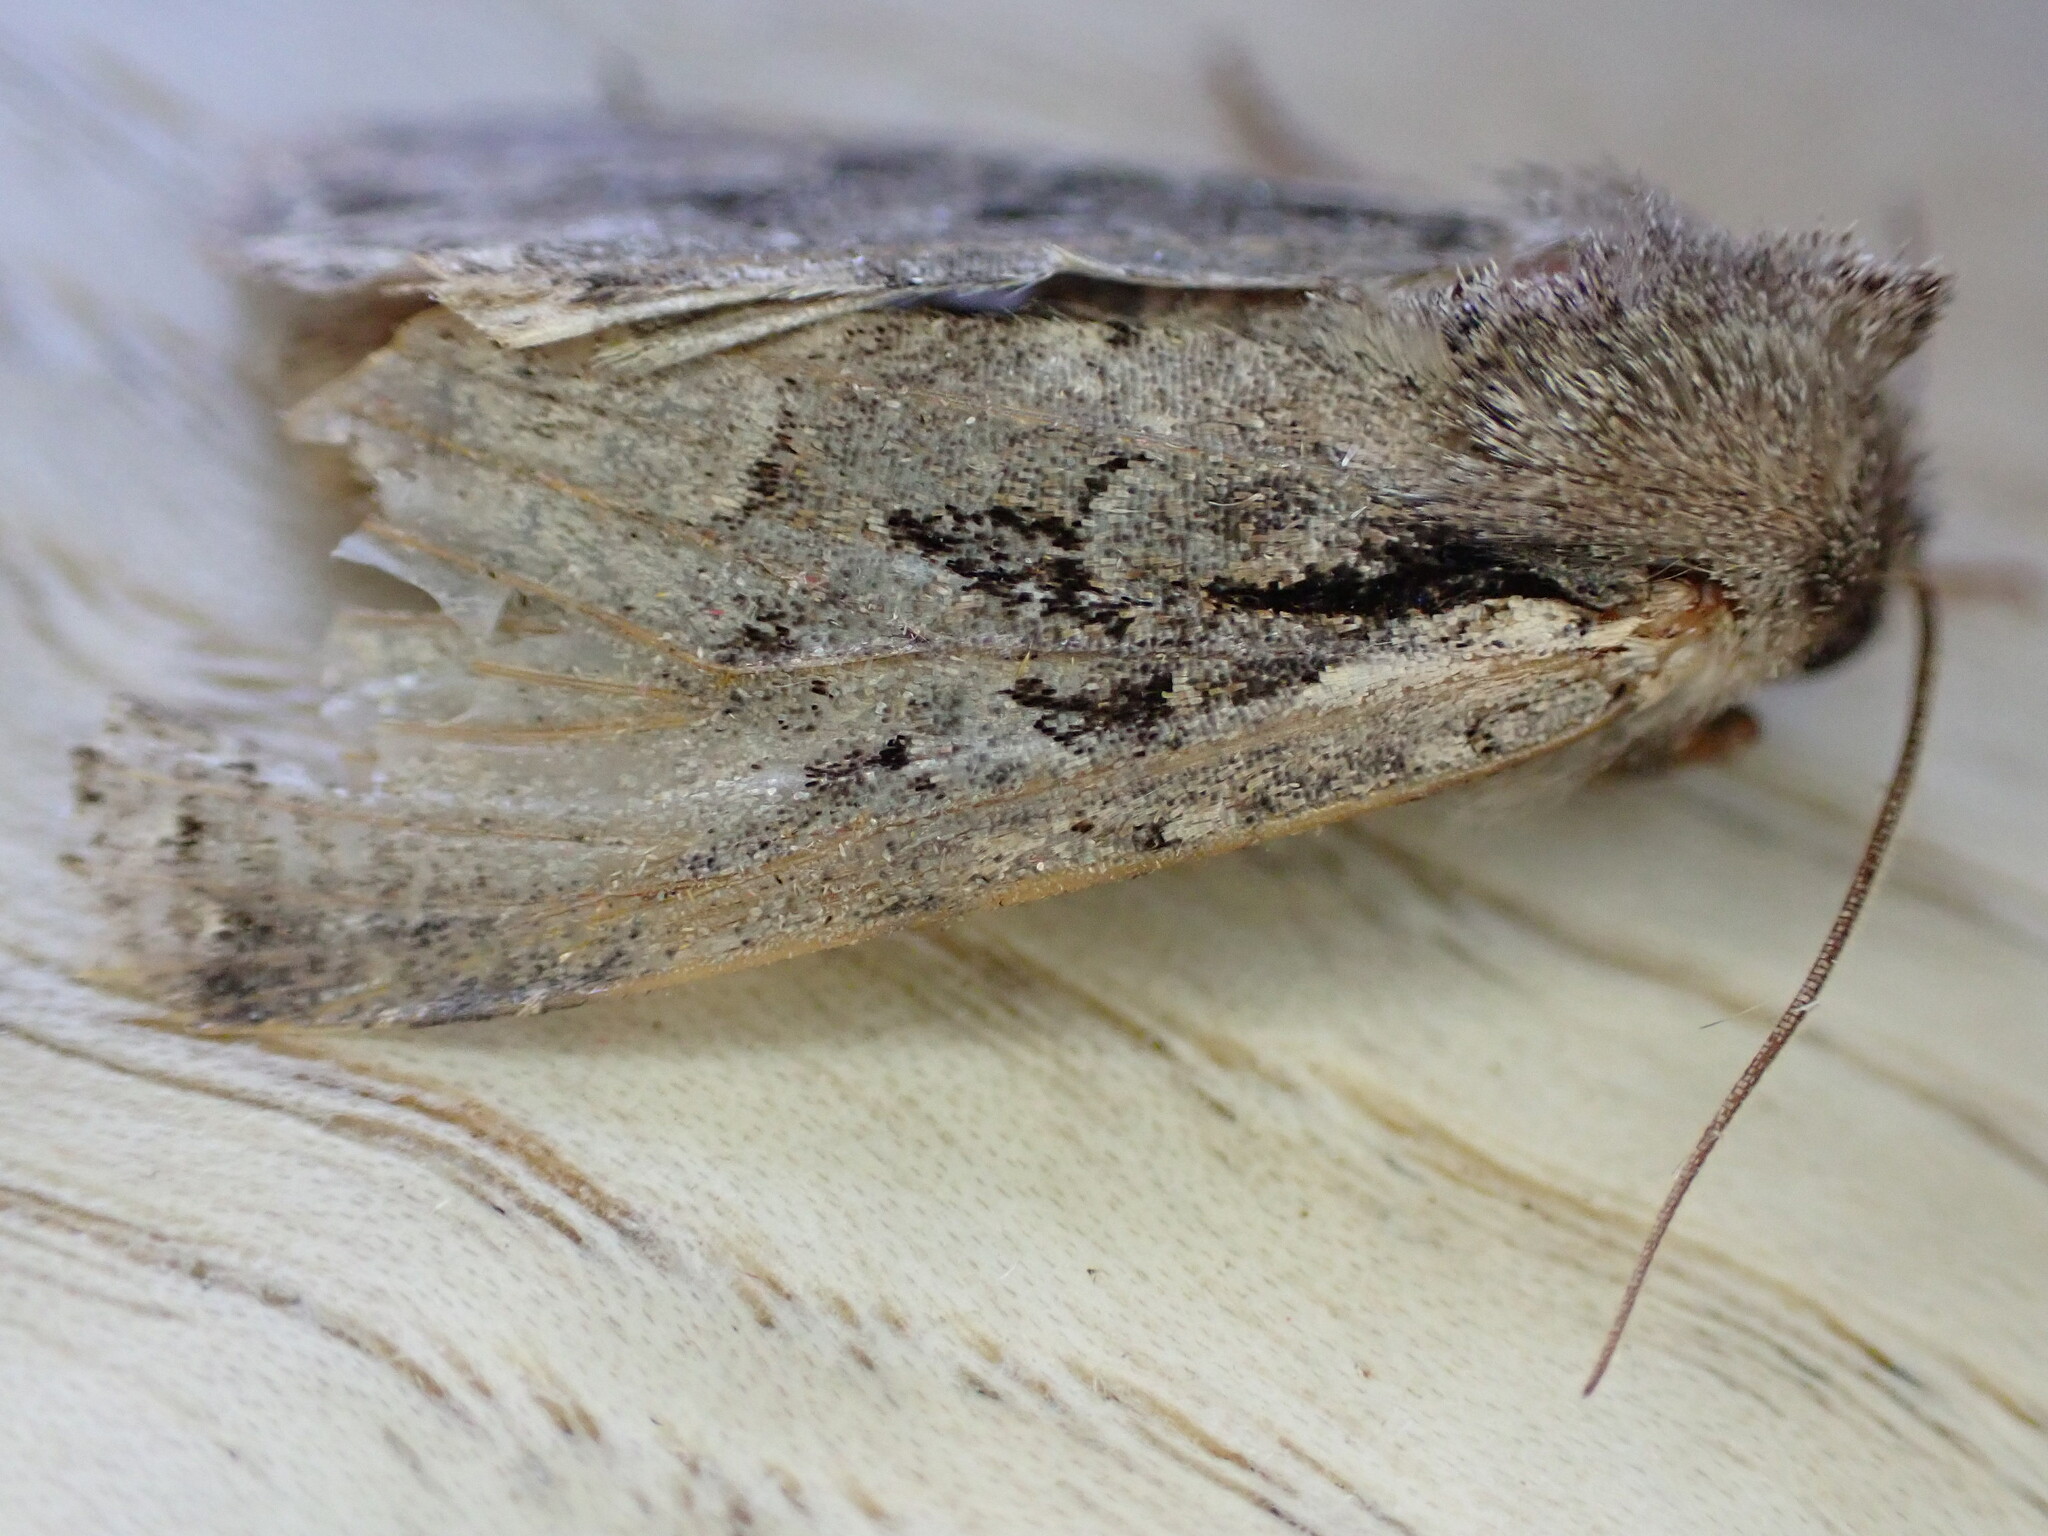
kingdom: Animalia
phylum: Arthropoda
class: Insecta
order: Lepidoptera
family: Noctuidae
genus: Lacanobia
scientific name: Lacanobia thalassina
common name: Pale-shouldered brocade
